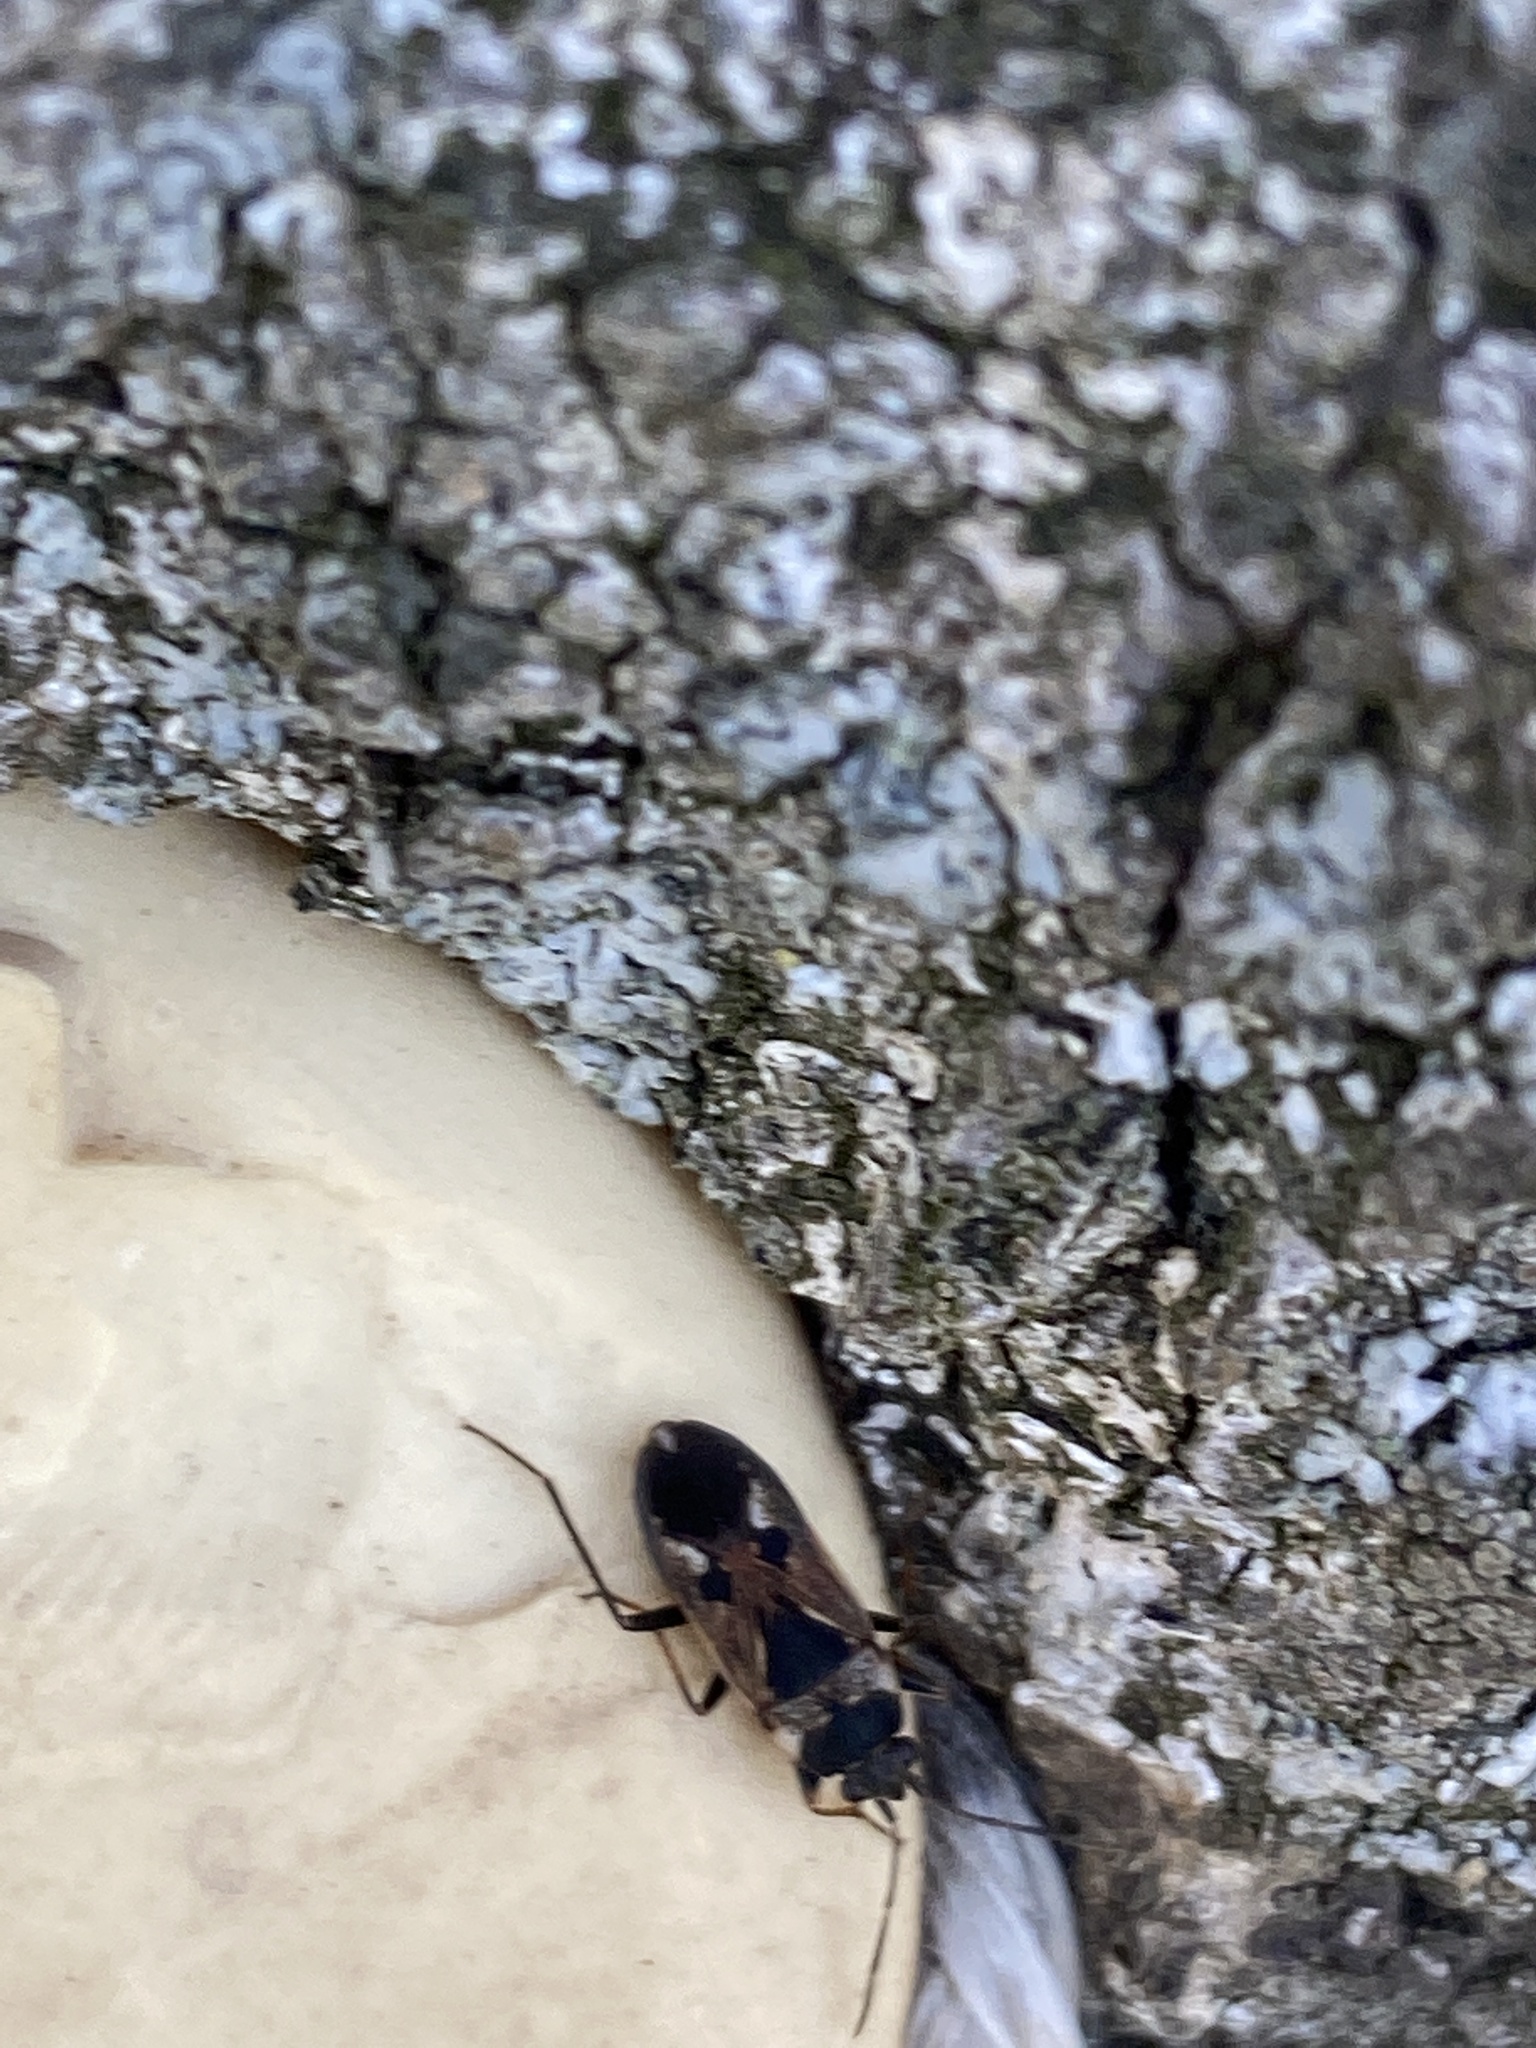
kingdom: Animalia
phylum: Arthropoda
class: Insecta
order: Hemiptera
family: Rhyparochromidae
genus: Rhyparochromus
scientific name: Rhyparochromus vulgaris
